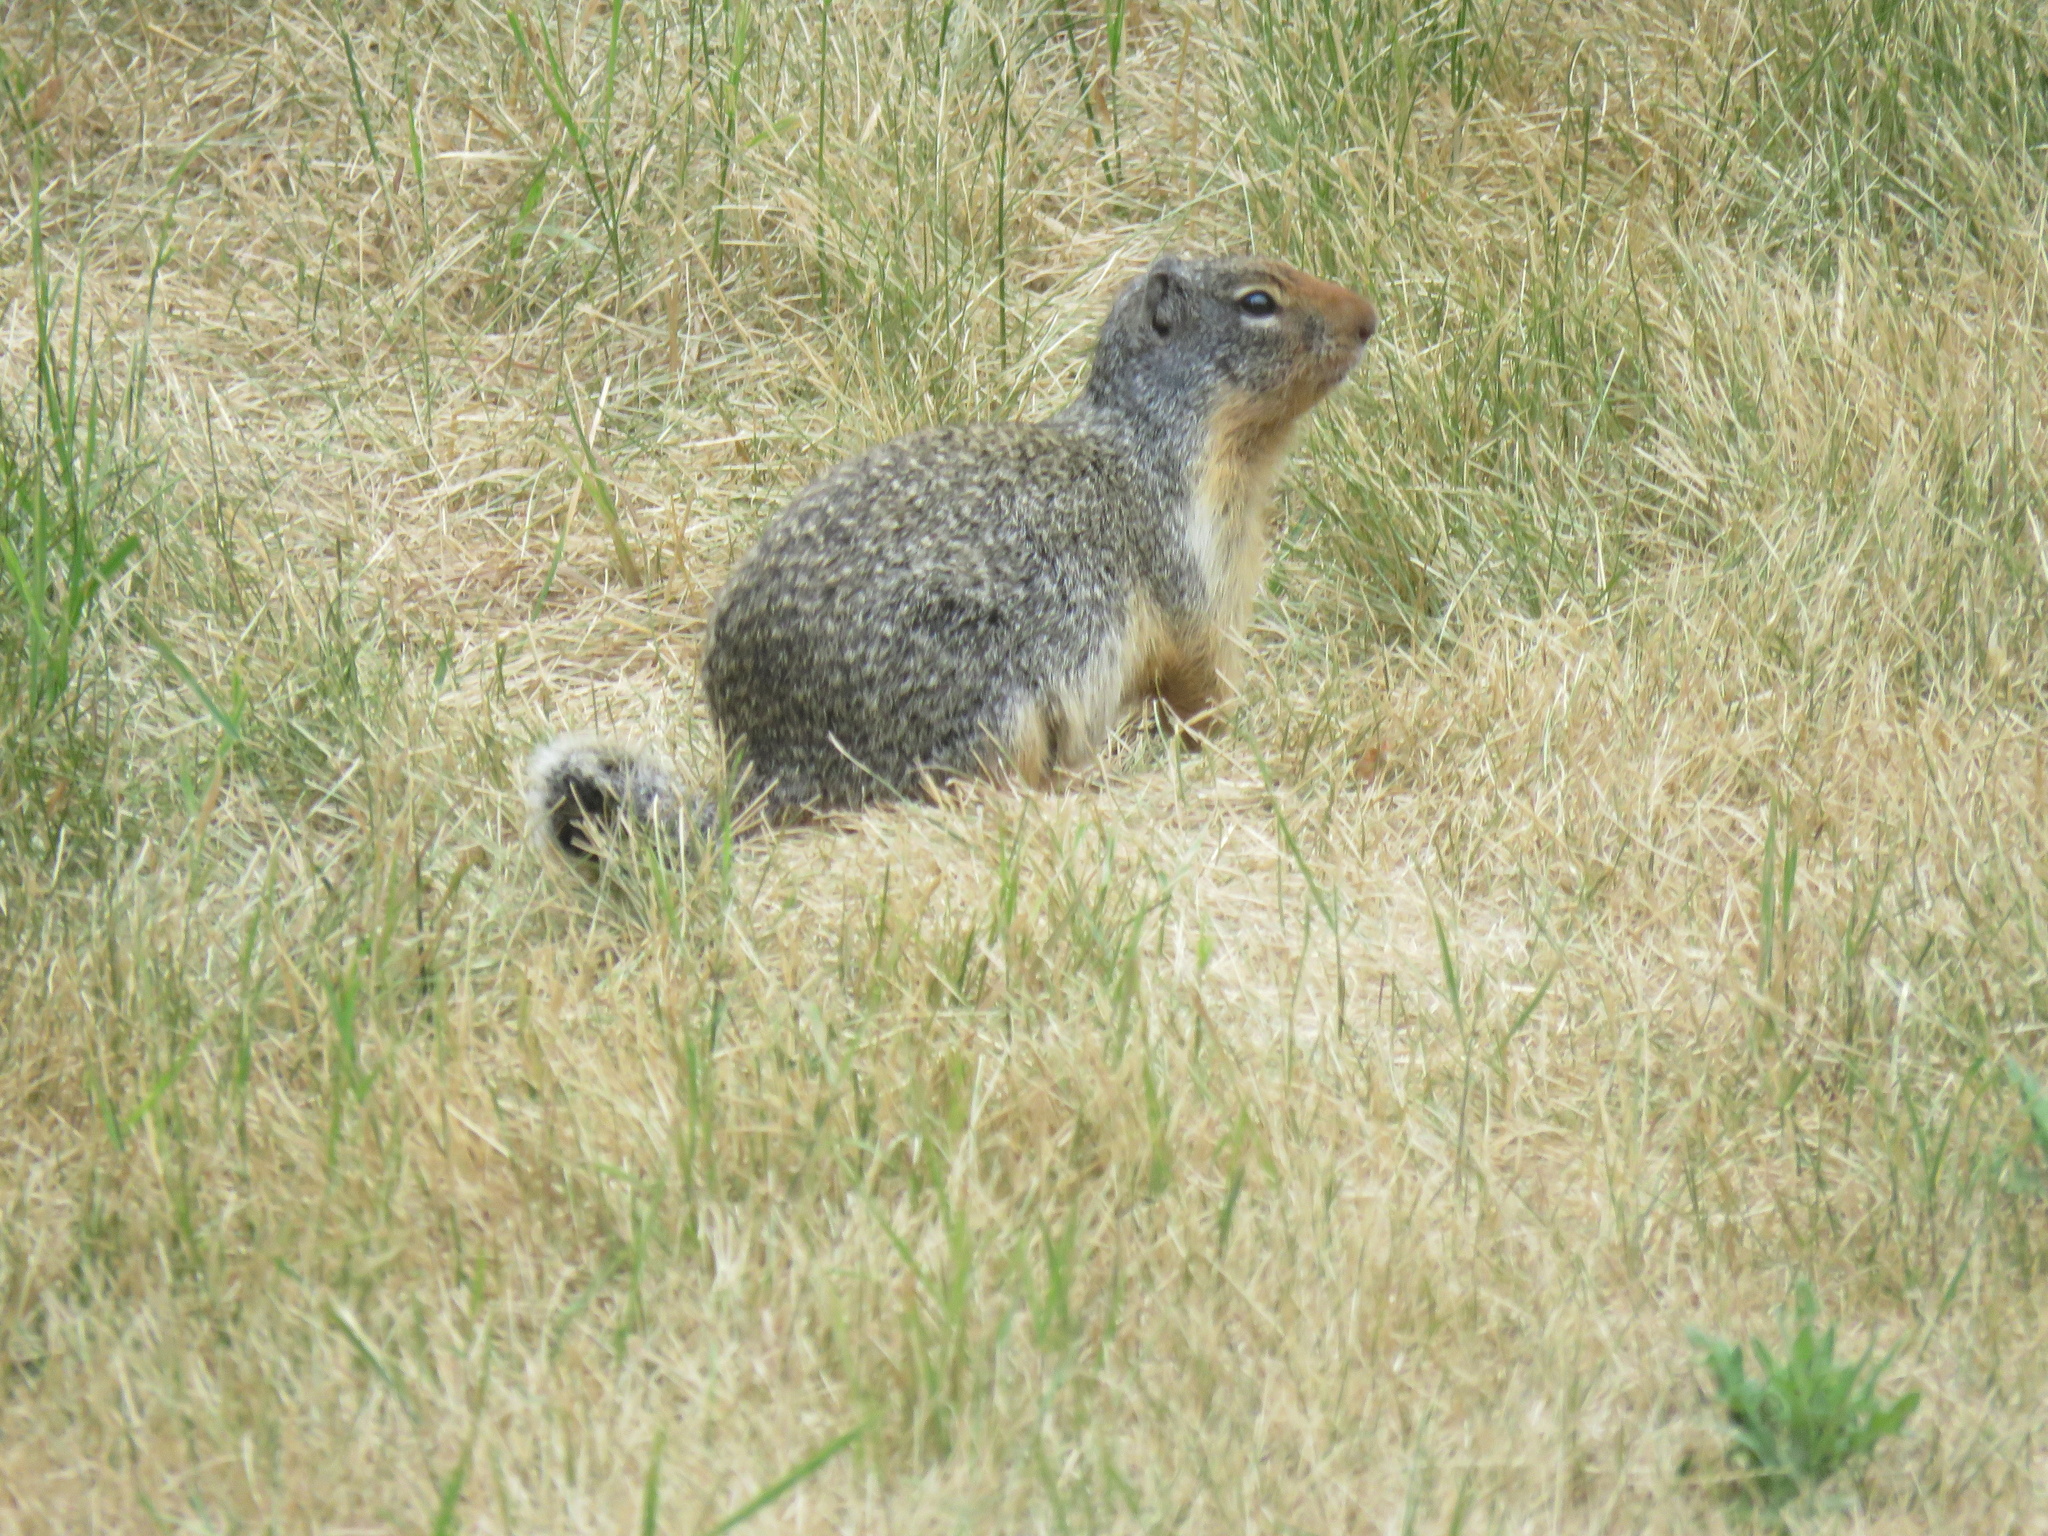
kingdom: Animalia
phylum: Chordata
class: Mammalia
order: Rodentia
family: Sciuridae
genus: Urocitellus
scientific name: Urocitellus columbianus
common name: Columbian ground squirrel
